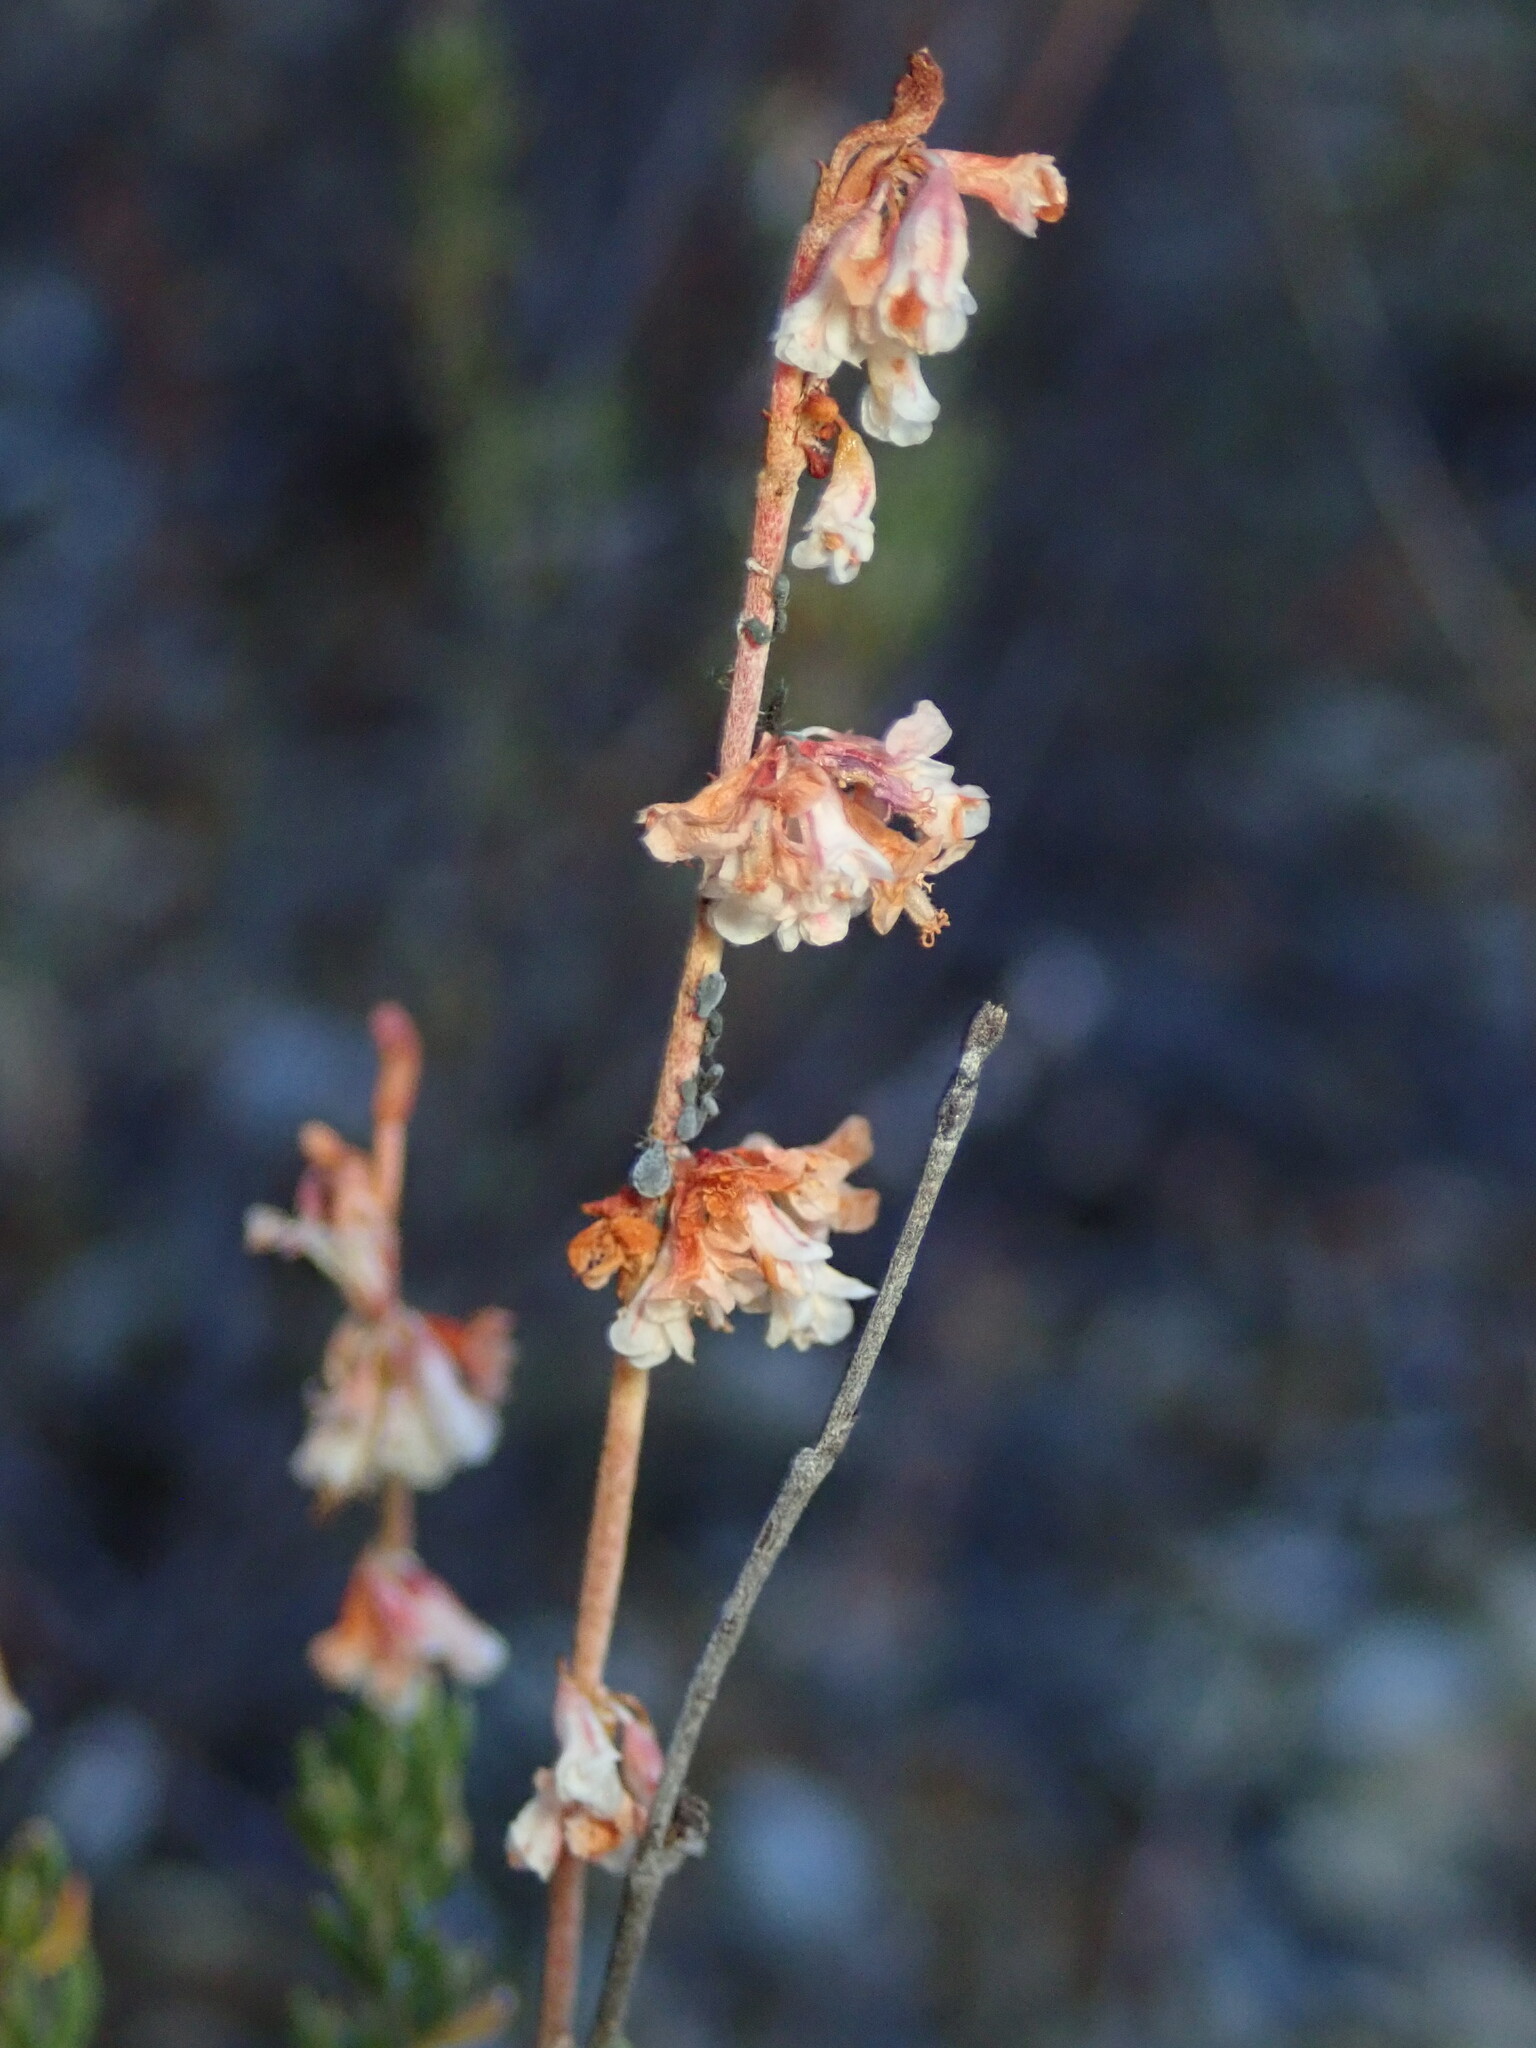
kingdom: Plantae
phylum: Tracheophyta
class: Magnoliopsida
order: Caryophyllales
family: Polygonaceae
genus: Eriogonum
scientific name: Eriogonum wrightii
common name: Bastard-sage
